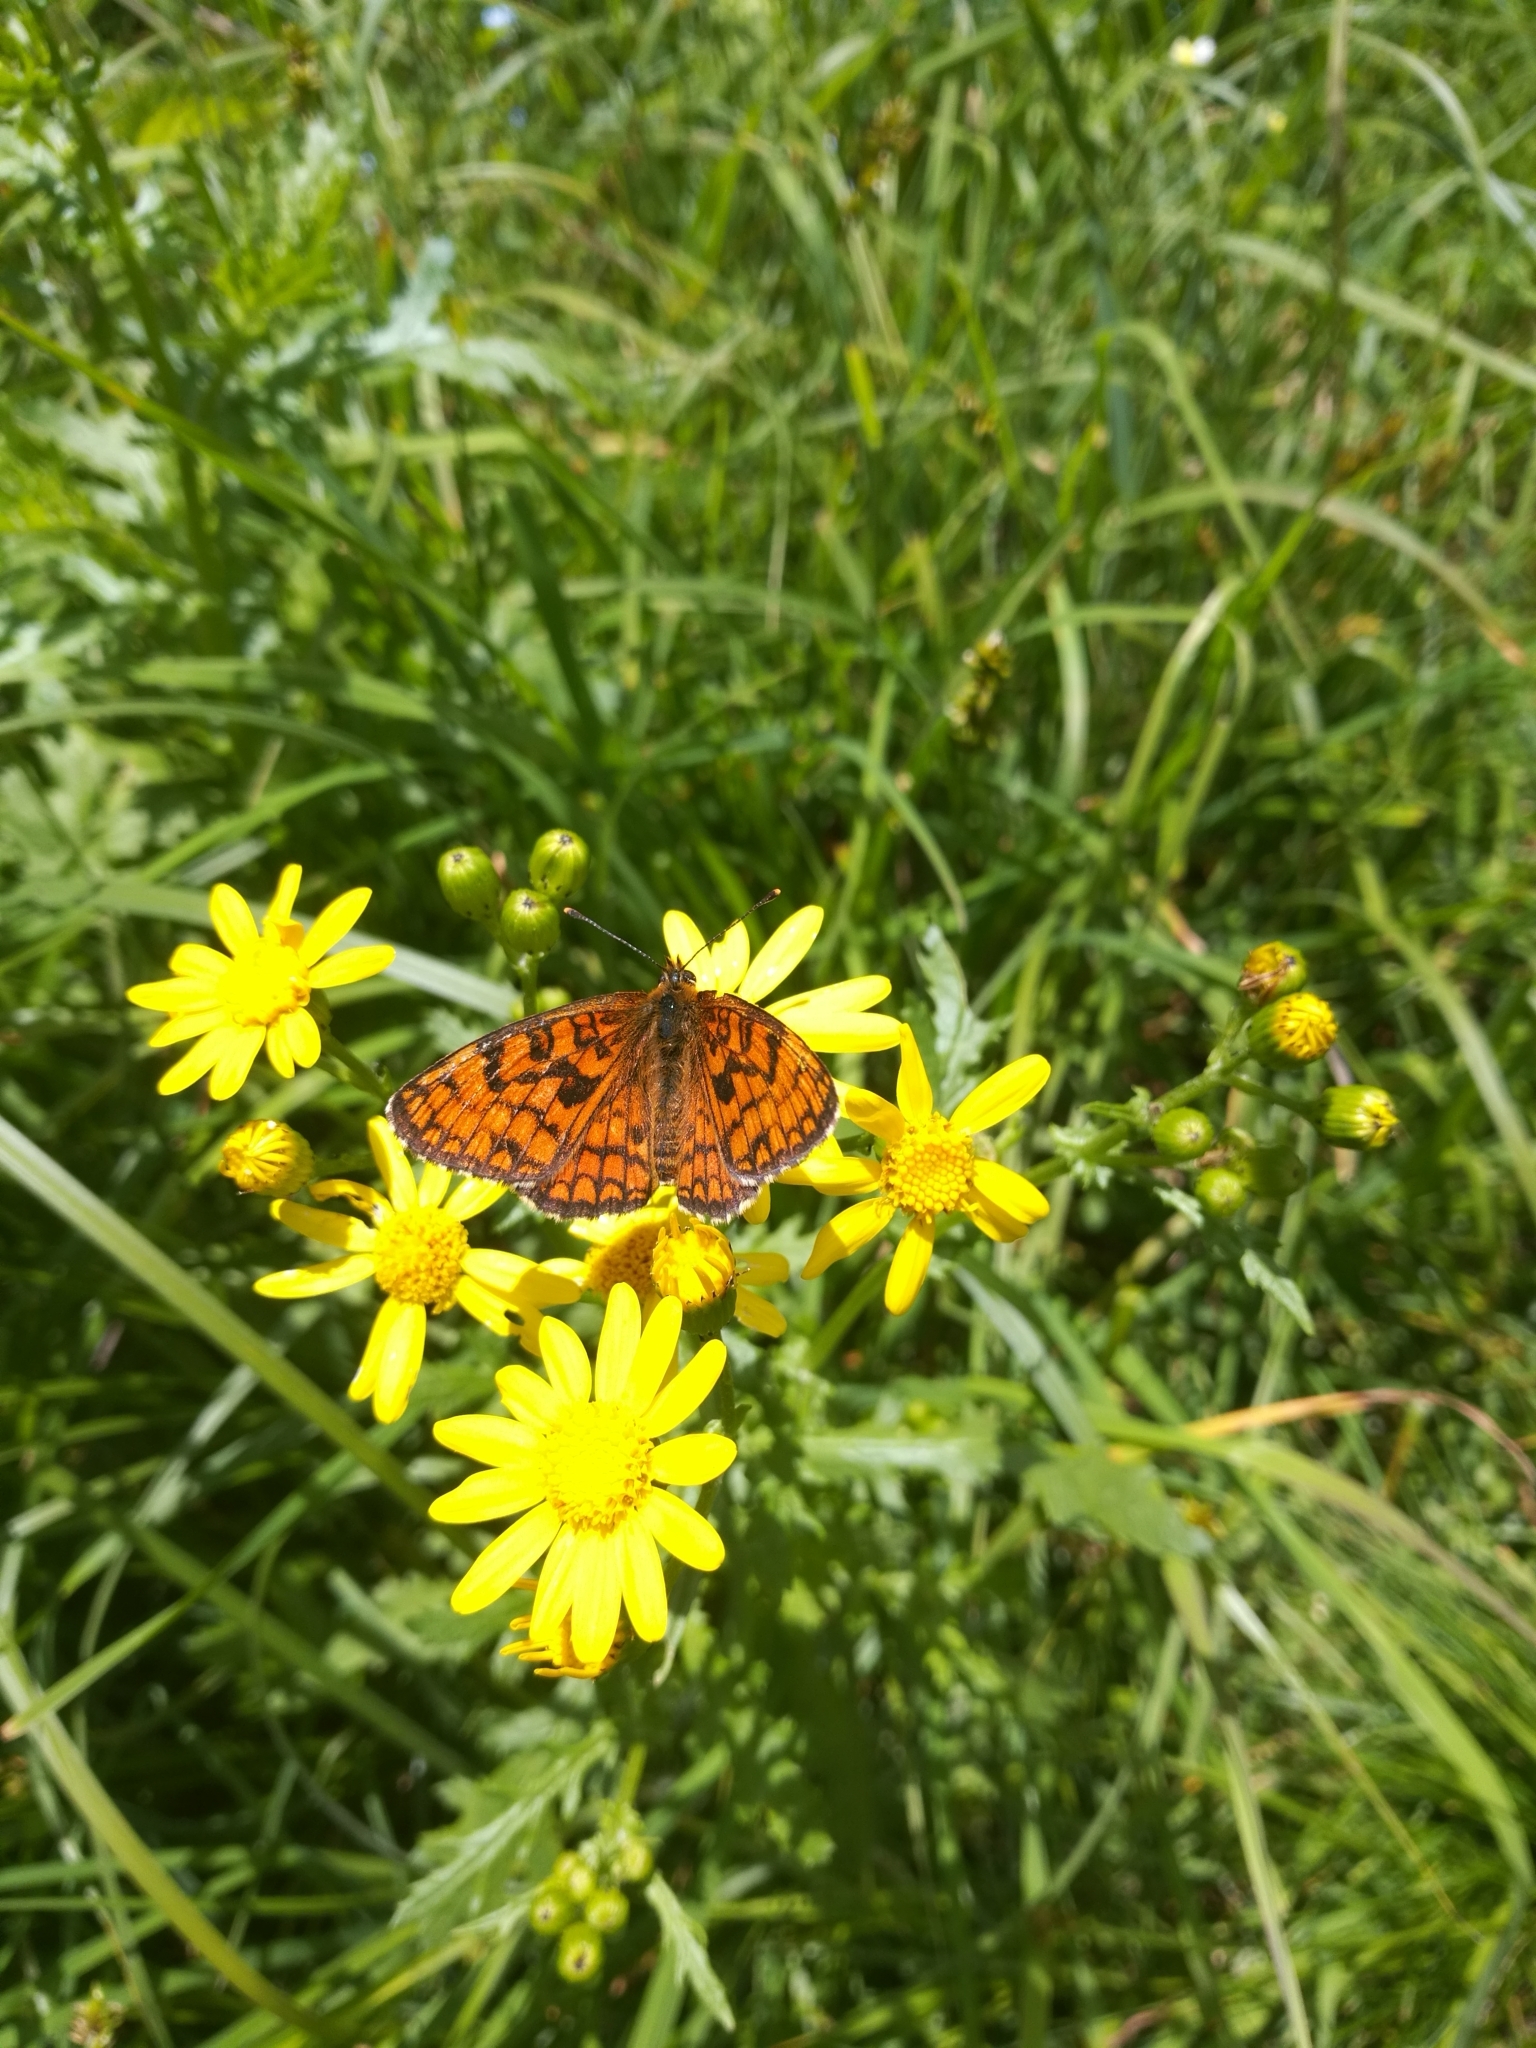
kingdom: Animalia
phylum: Arthropoda
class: Insecta
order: Lepidoptera
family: Nymphalidae
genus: Mellicta
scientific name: Mellicta athalia
